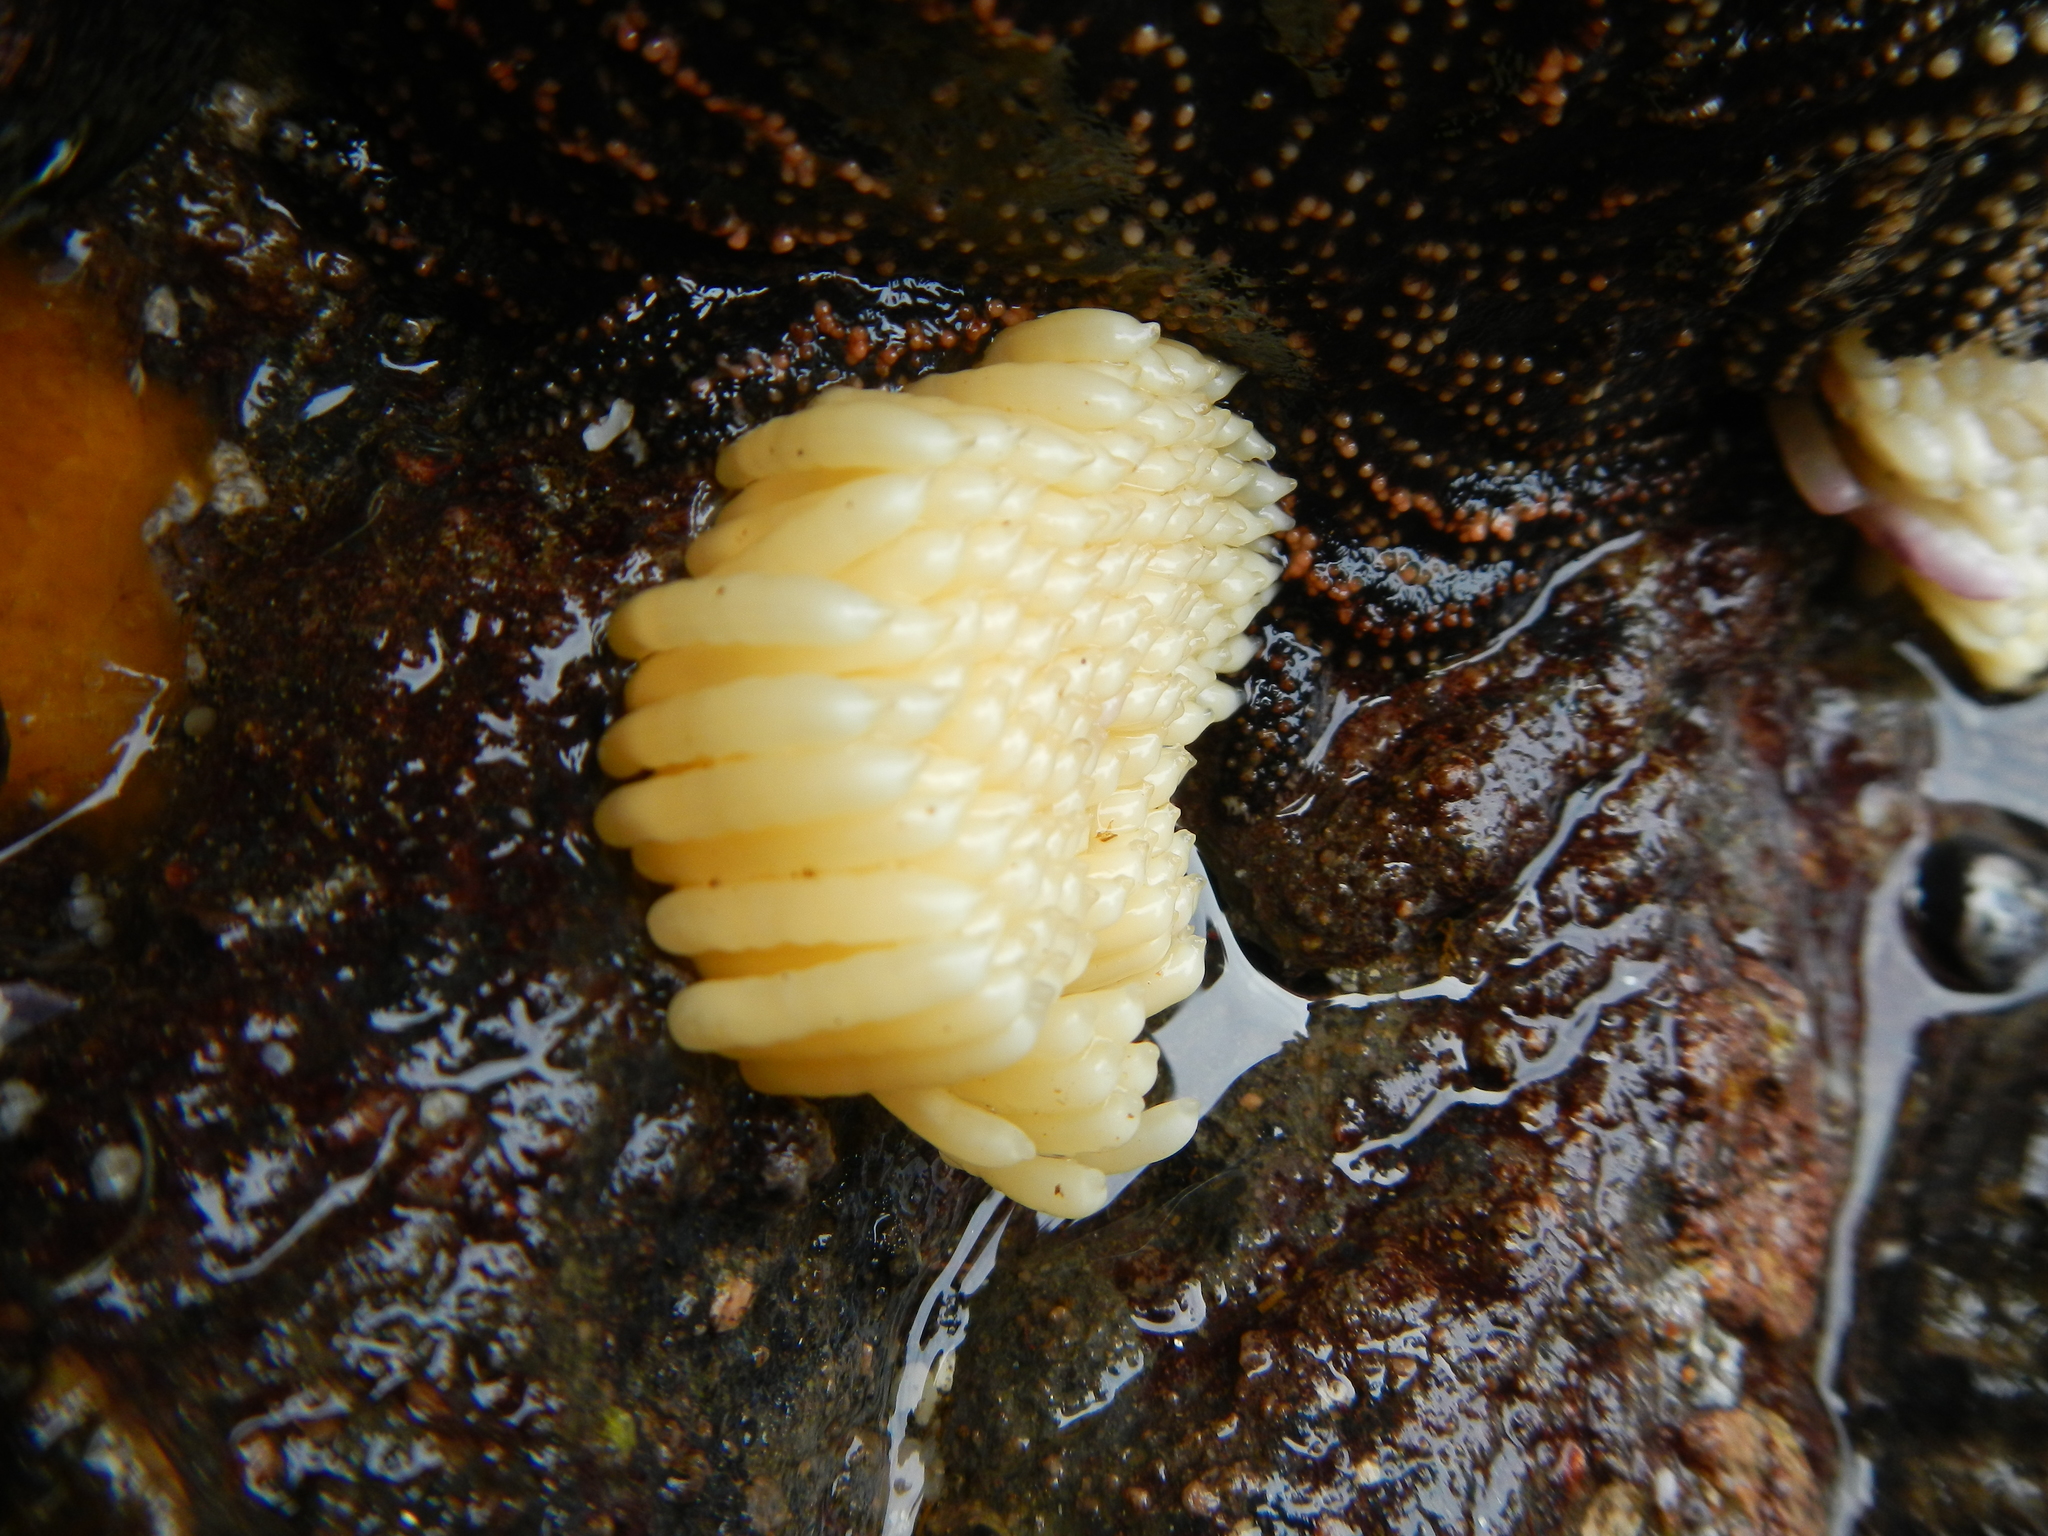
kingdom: Animalia
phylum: Mollusca
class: Gastropoda
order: Neogastropoda
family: Muricidae
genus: Concholepas
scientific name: Concholepas concholepas
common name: Chilean abalone
